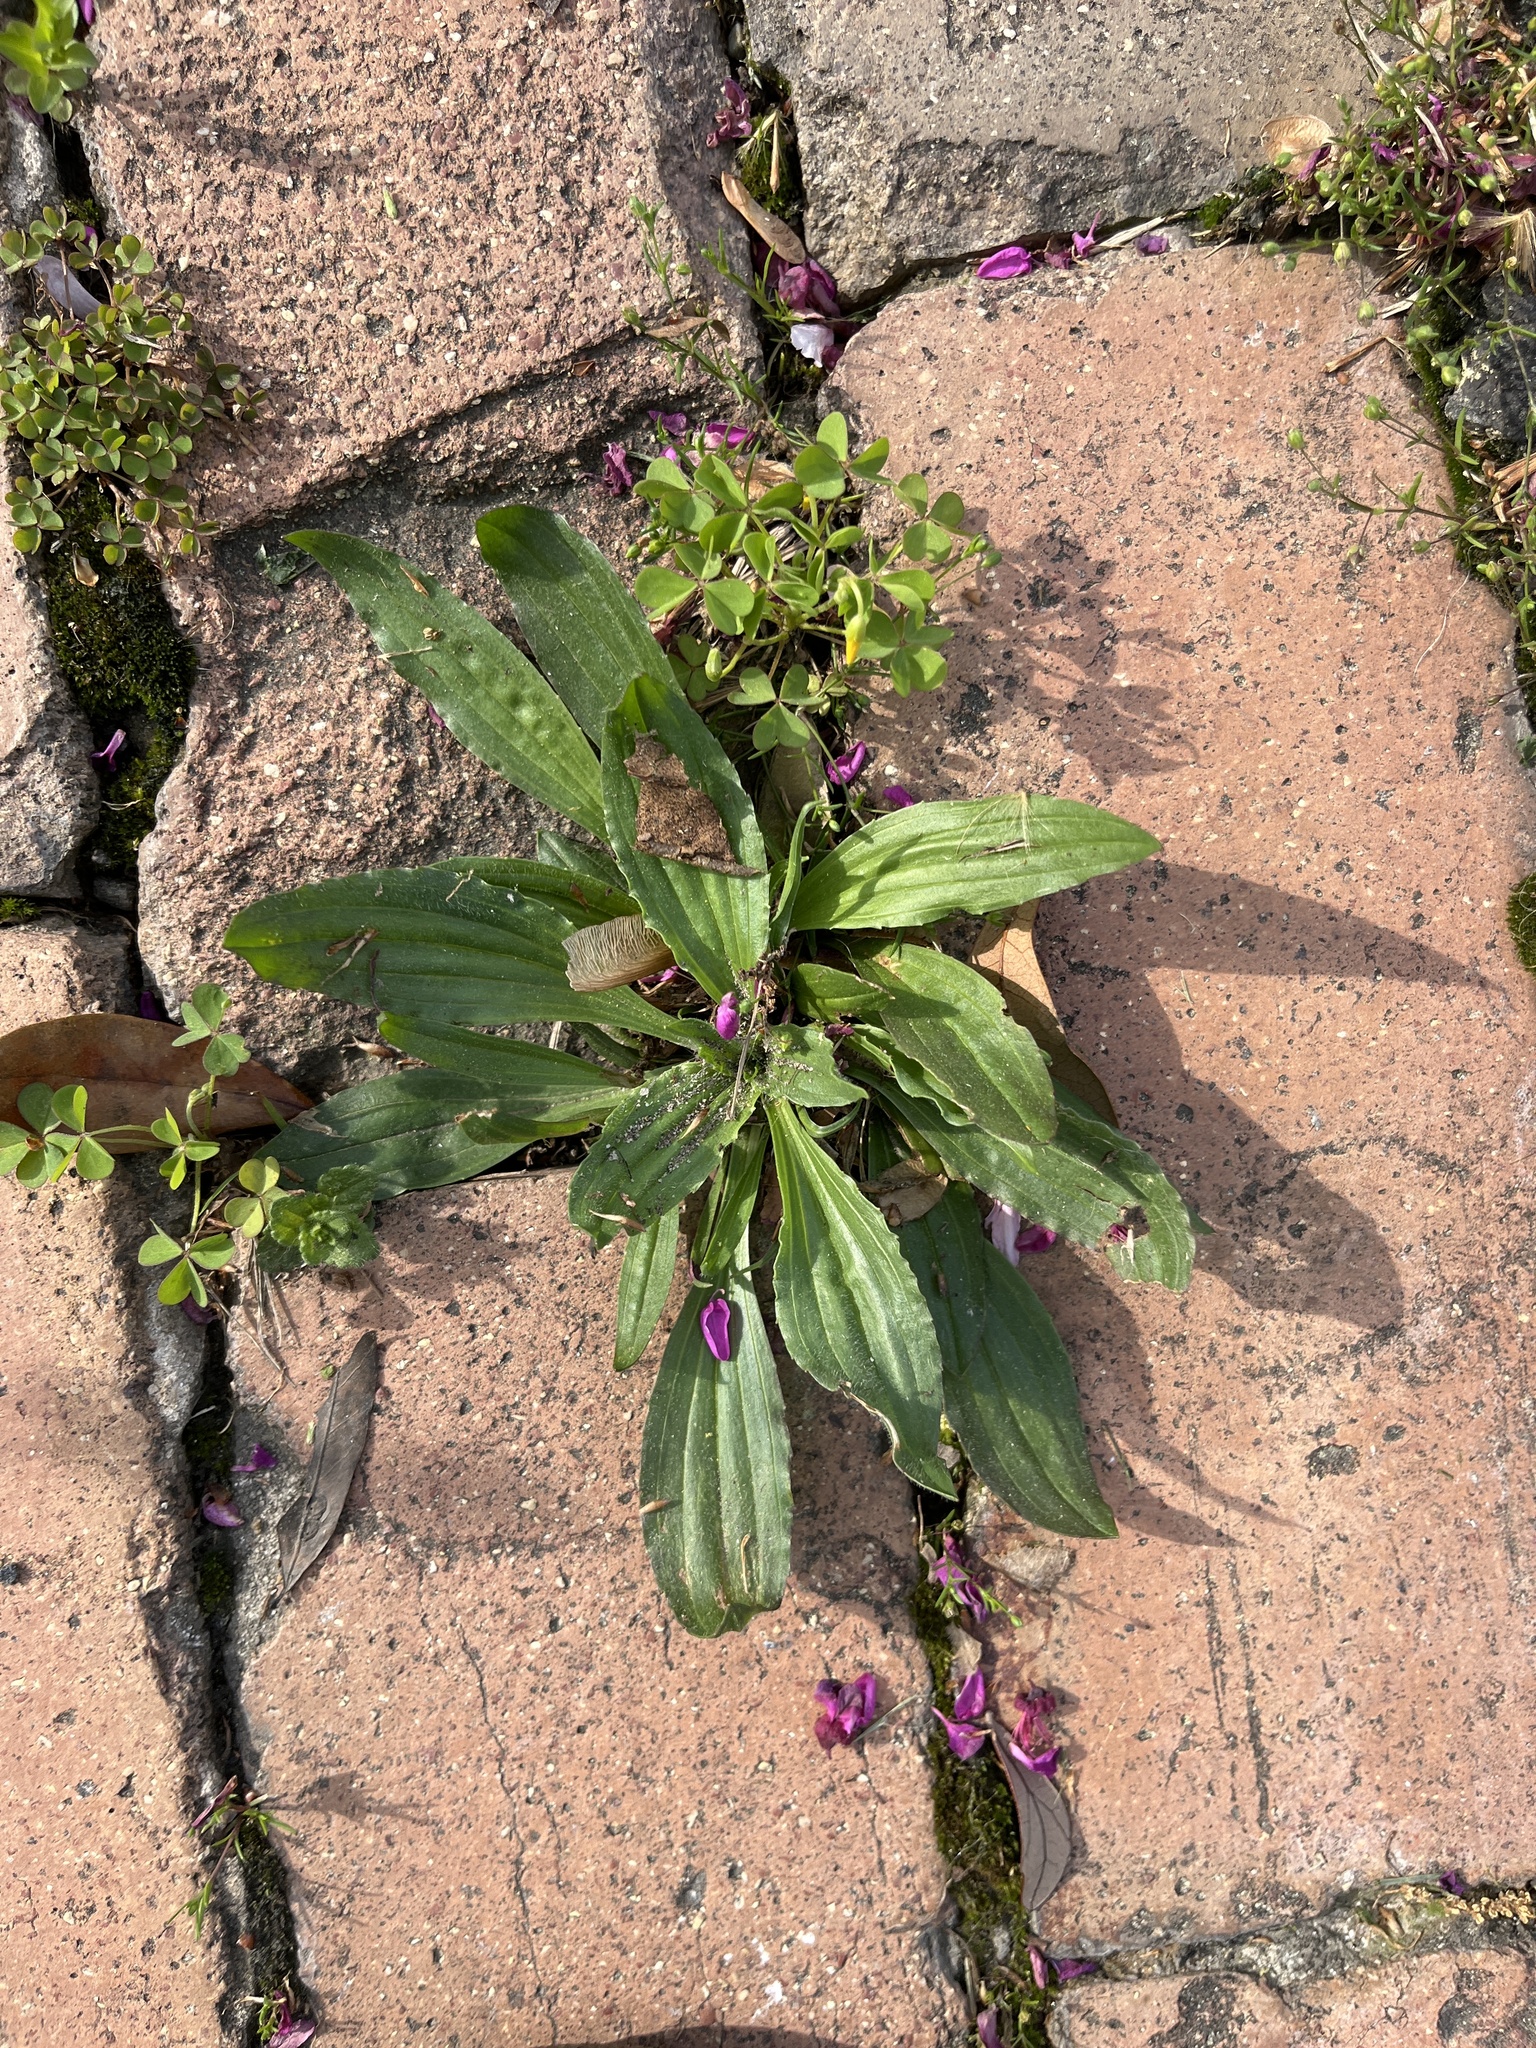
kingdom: Plantae
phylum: Tracheophyta
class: Magnoliopsida
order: Lamiales
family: Plantaginaceae
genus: Plantago
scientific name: Plantago lanceolata
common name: Ribwort plantain
